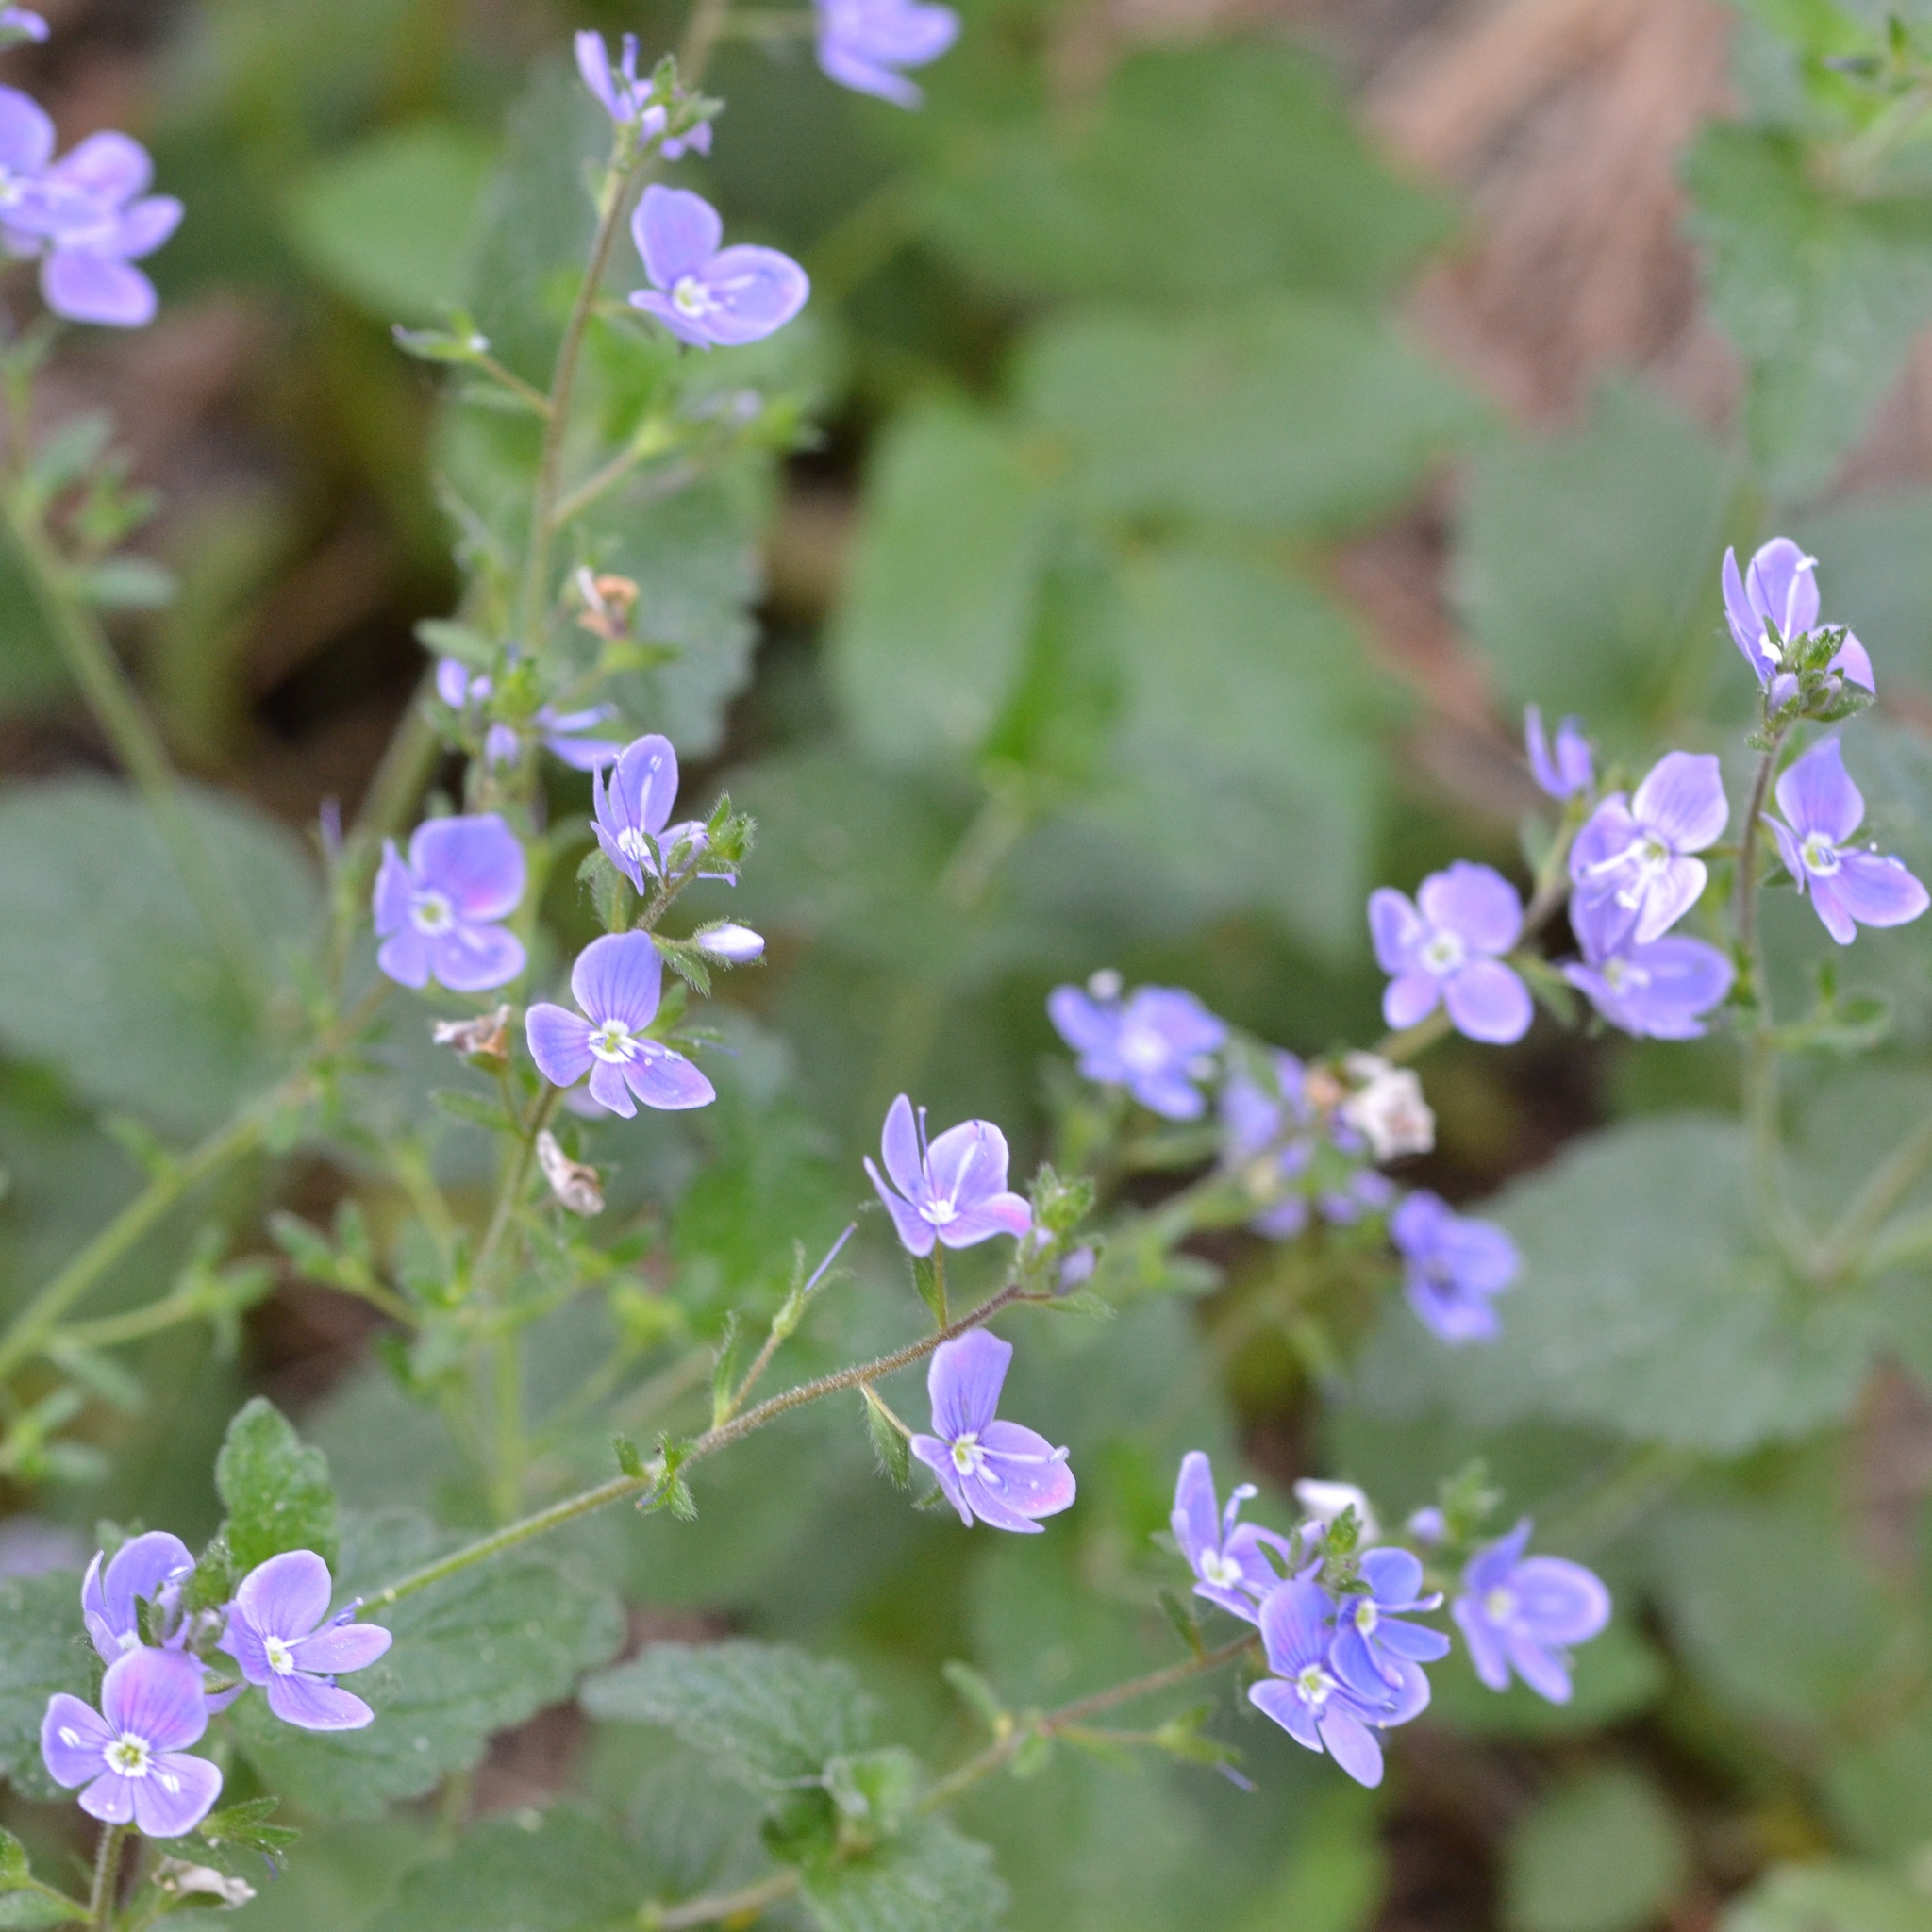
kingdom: Plantae
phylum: Tracheophyta
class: Magnoliopsida
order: Lamiales
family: Plantaginaceae
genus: Veronica
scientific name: Veronica chamaedrys
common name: Germander speedwell
